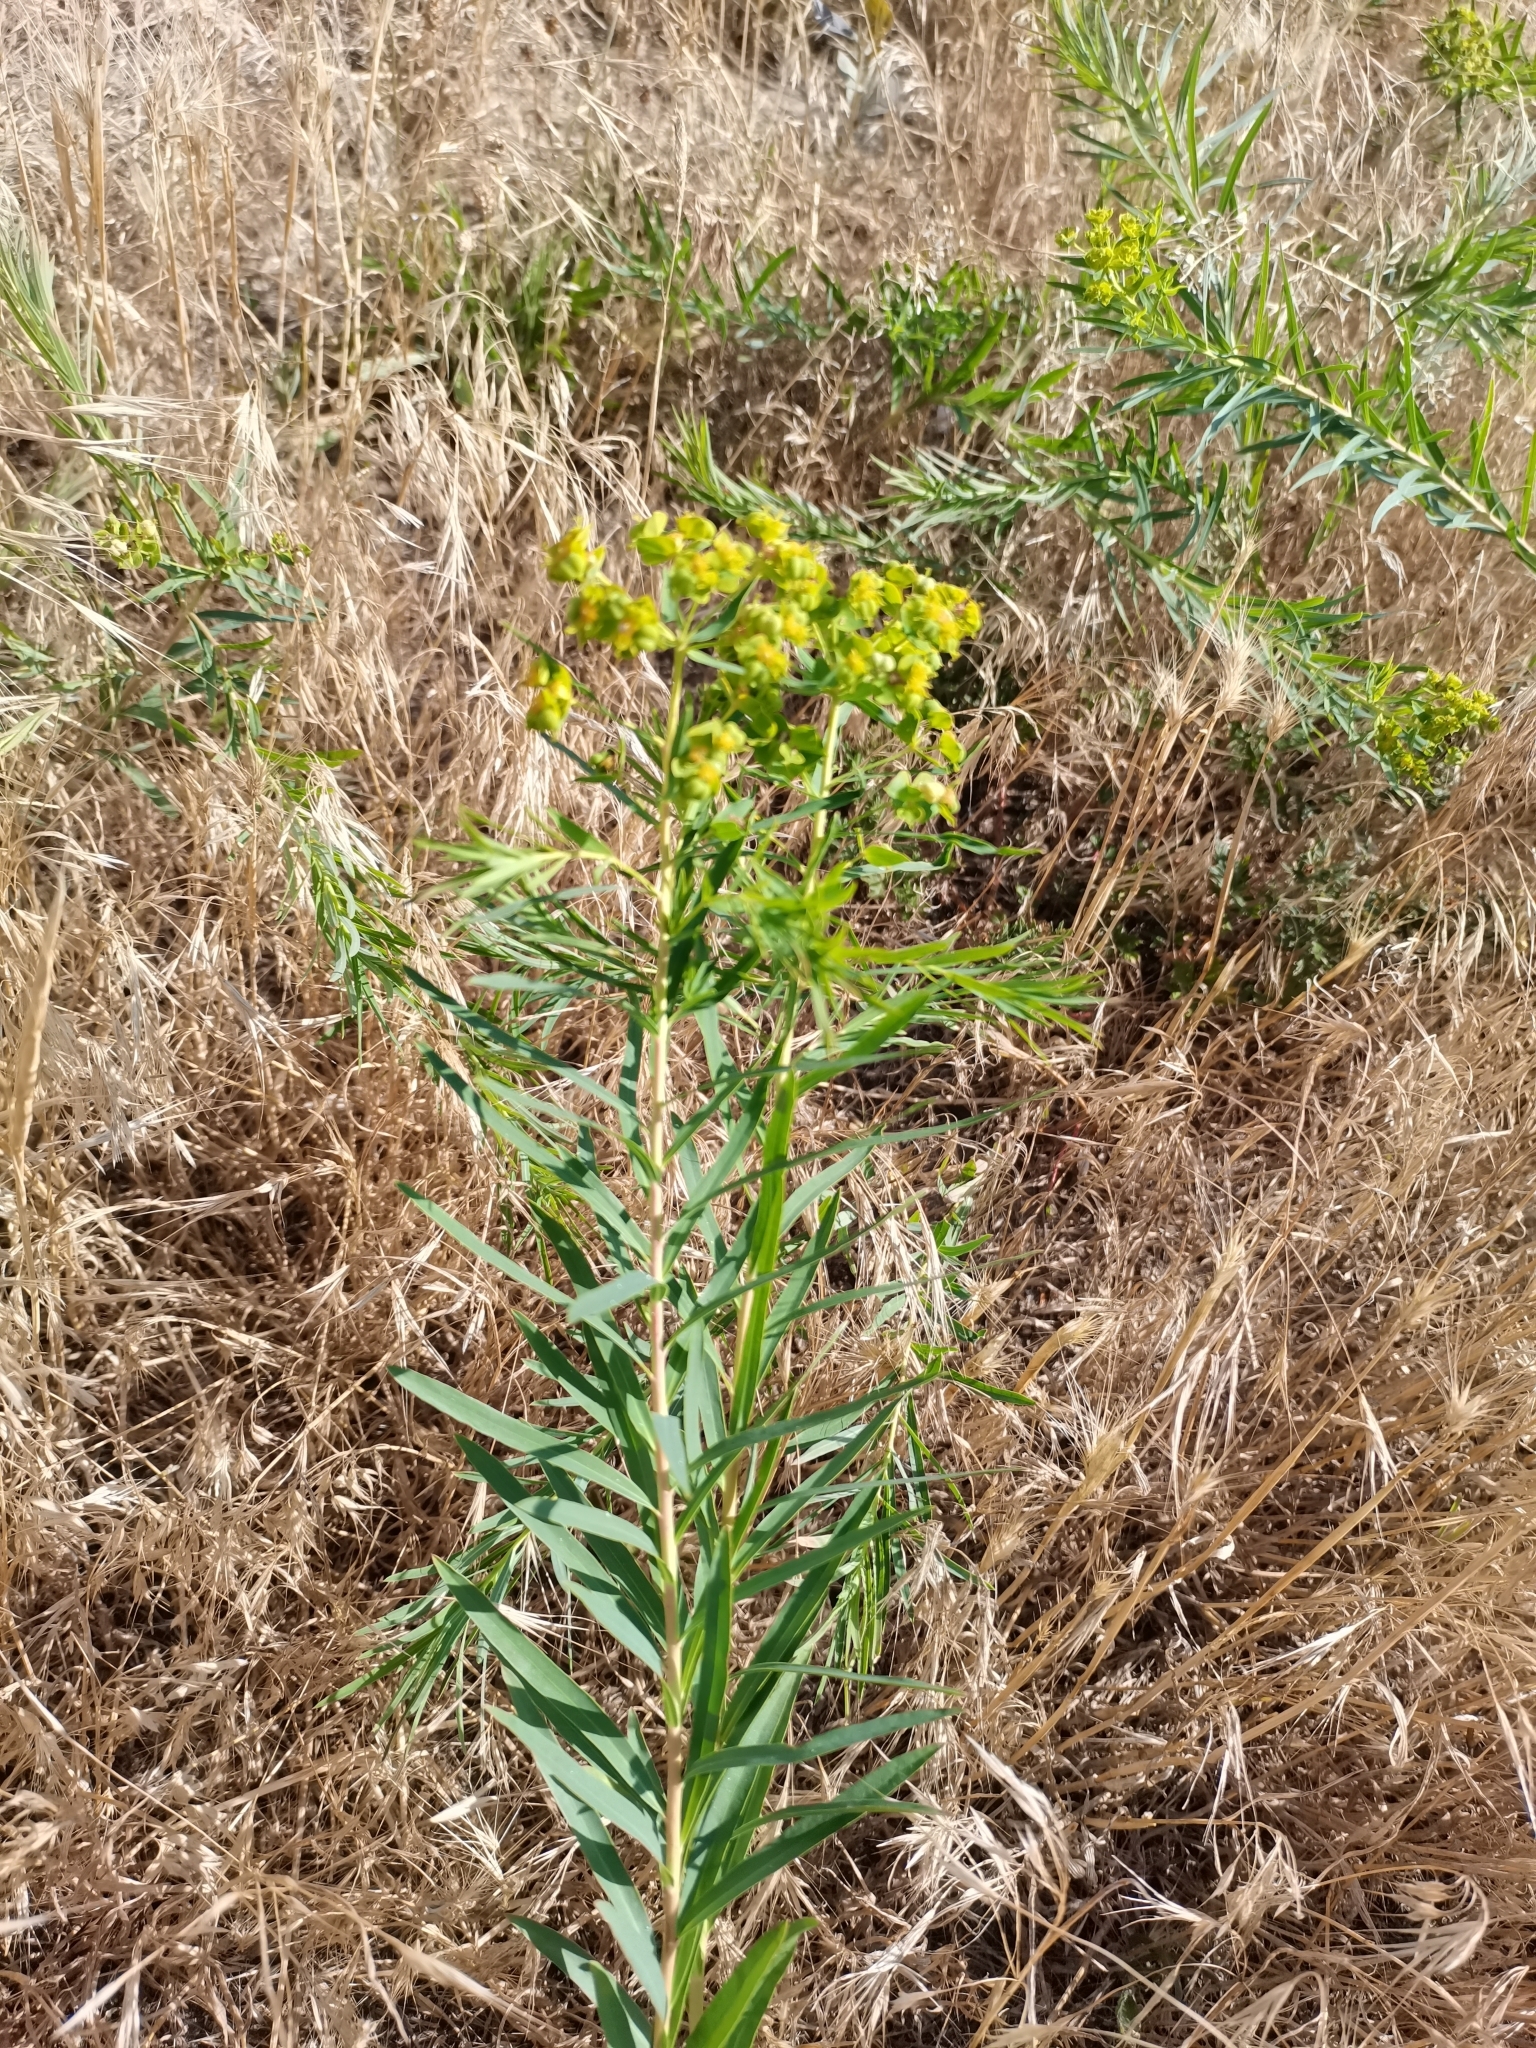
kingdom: Plantae
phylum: Tracheophyta
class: Magnoliopsida
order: Malpighiales
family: Euphorbiaceae
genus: Euphorbia
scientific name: Euphorbia virgata
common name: Leafy spurge
